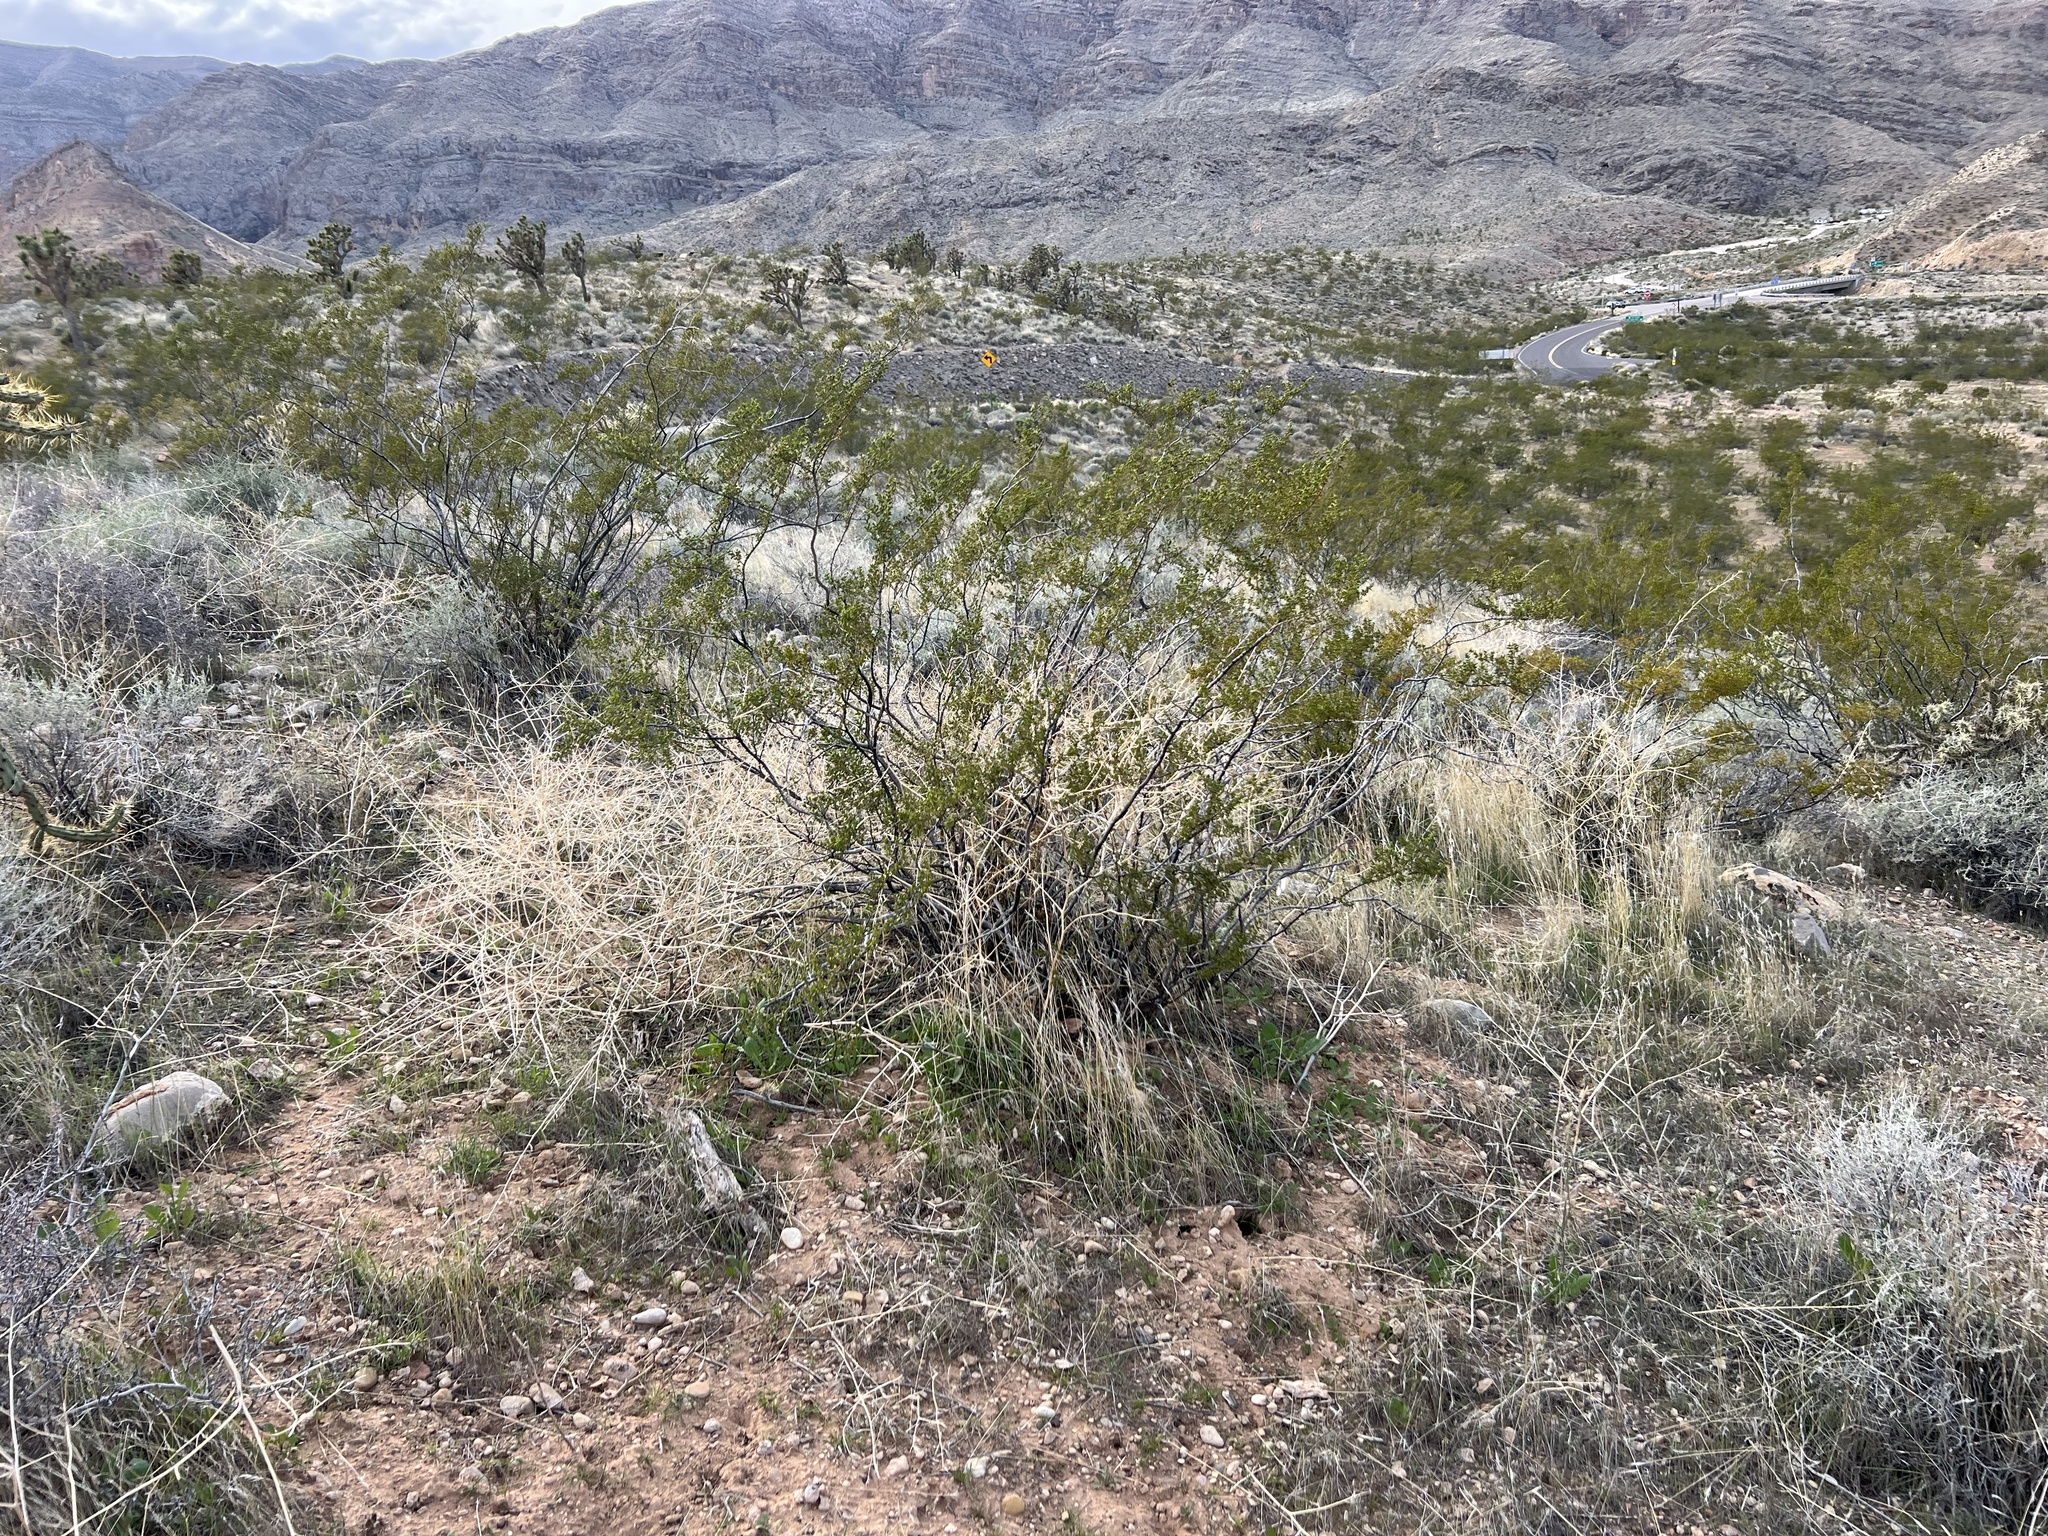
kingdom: Plantae
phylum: Tracheophyta
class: Magnoliopsida
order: Zygophyllales
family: Zygophyllaceae
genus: Larrea
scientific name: Larrea tridentata
